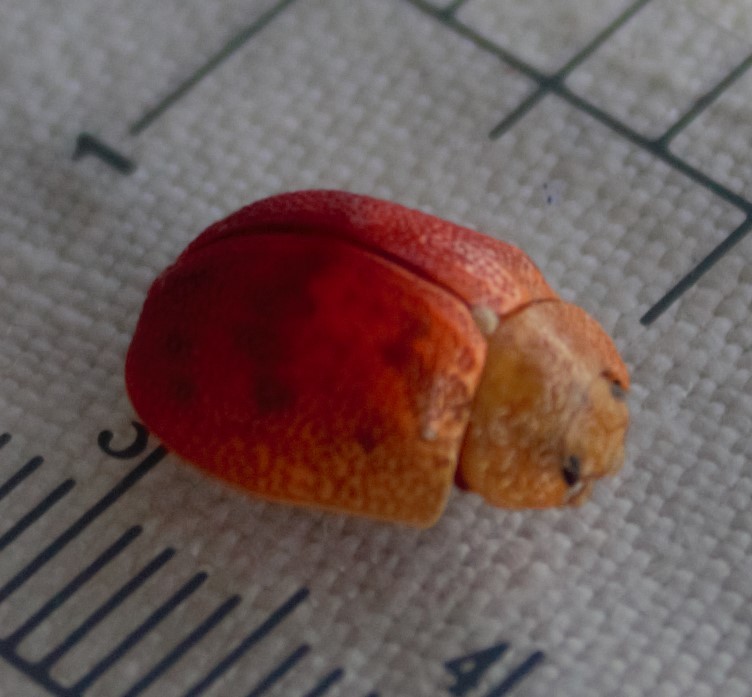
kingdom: Animalia
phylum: Arthropoda
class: Insecta
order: Coleoptera
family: Chrysomelidae
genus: Paropsis
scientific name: Paropsis charybdis
